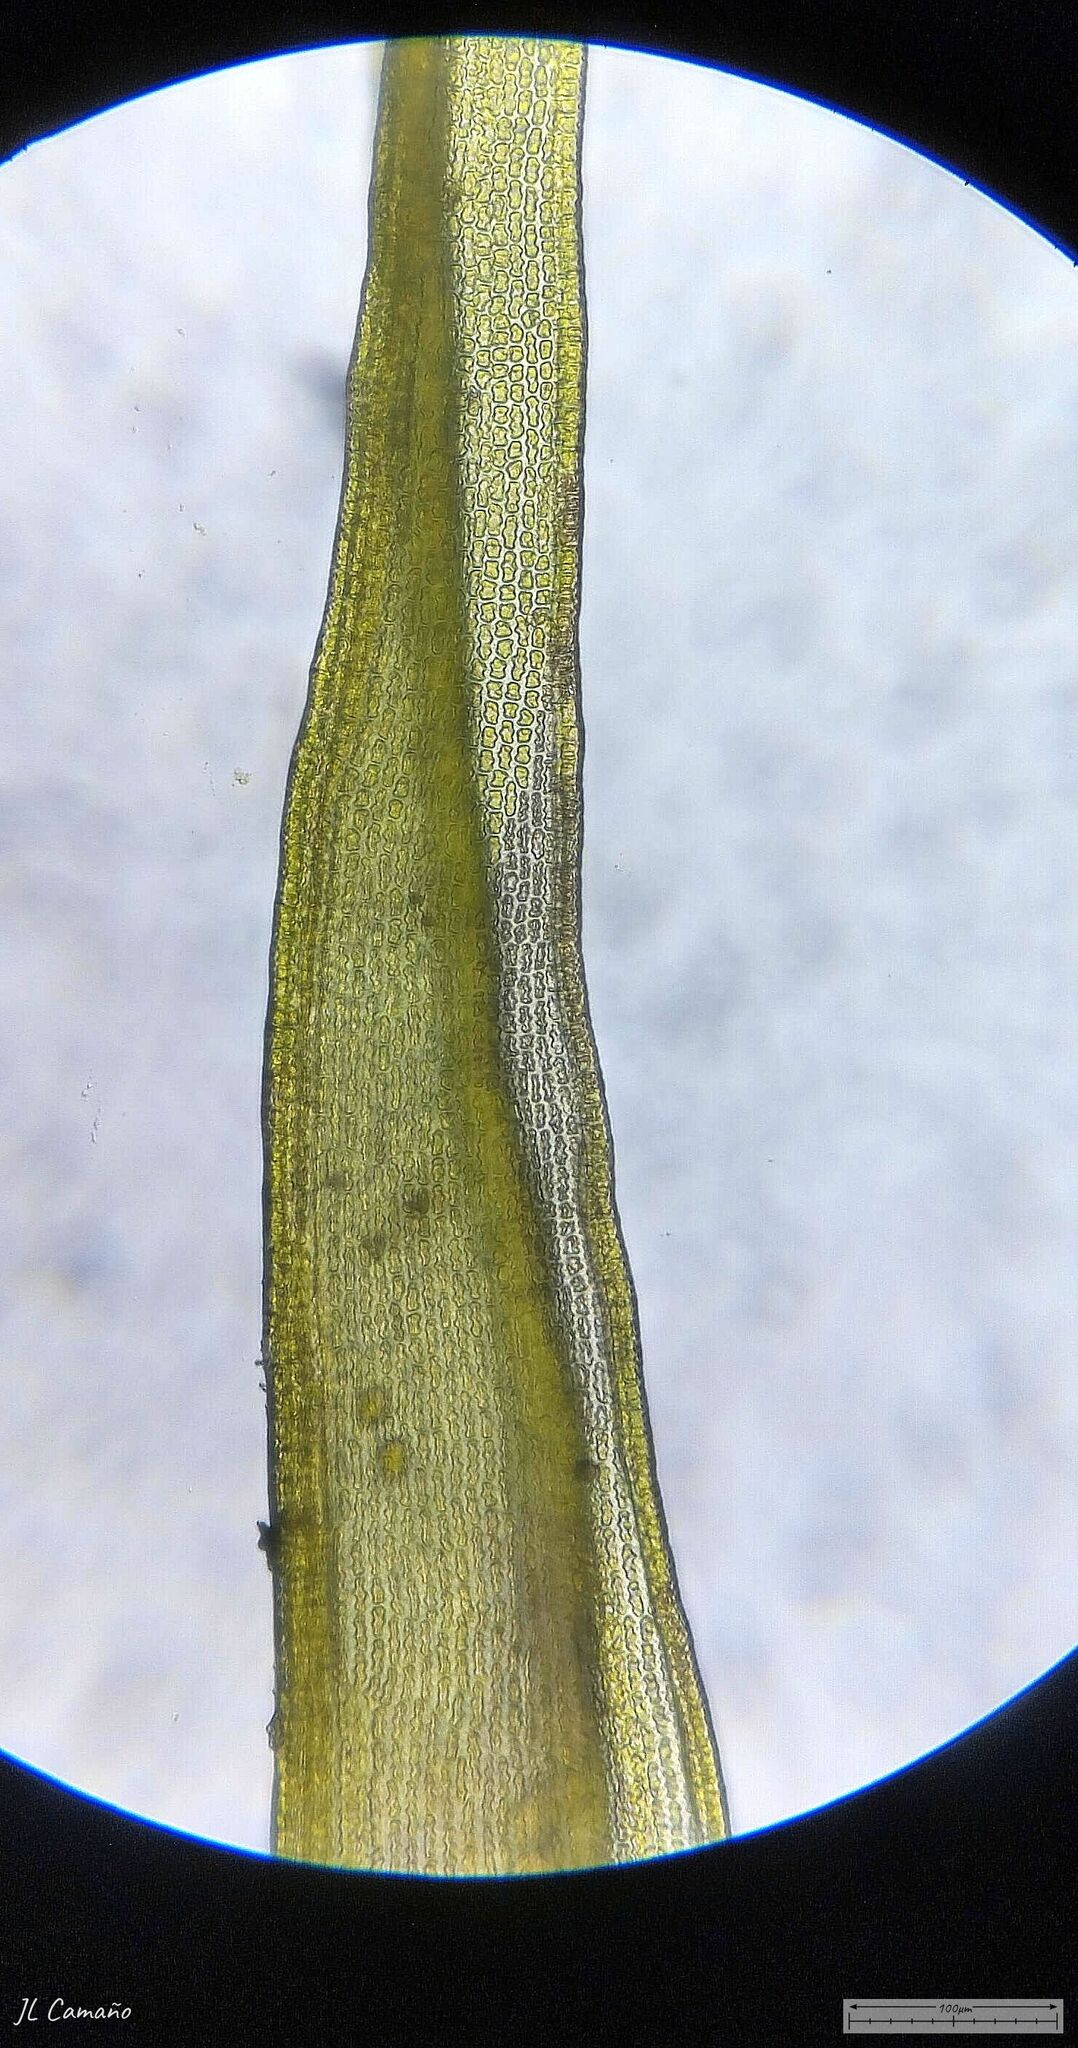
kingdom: Plantae
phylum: Bryophyta
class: Bryopsida
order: Grimmiales
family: Grimmiaceae
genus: Bucklandiella
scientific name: Bucklandiella heterosticha
